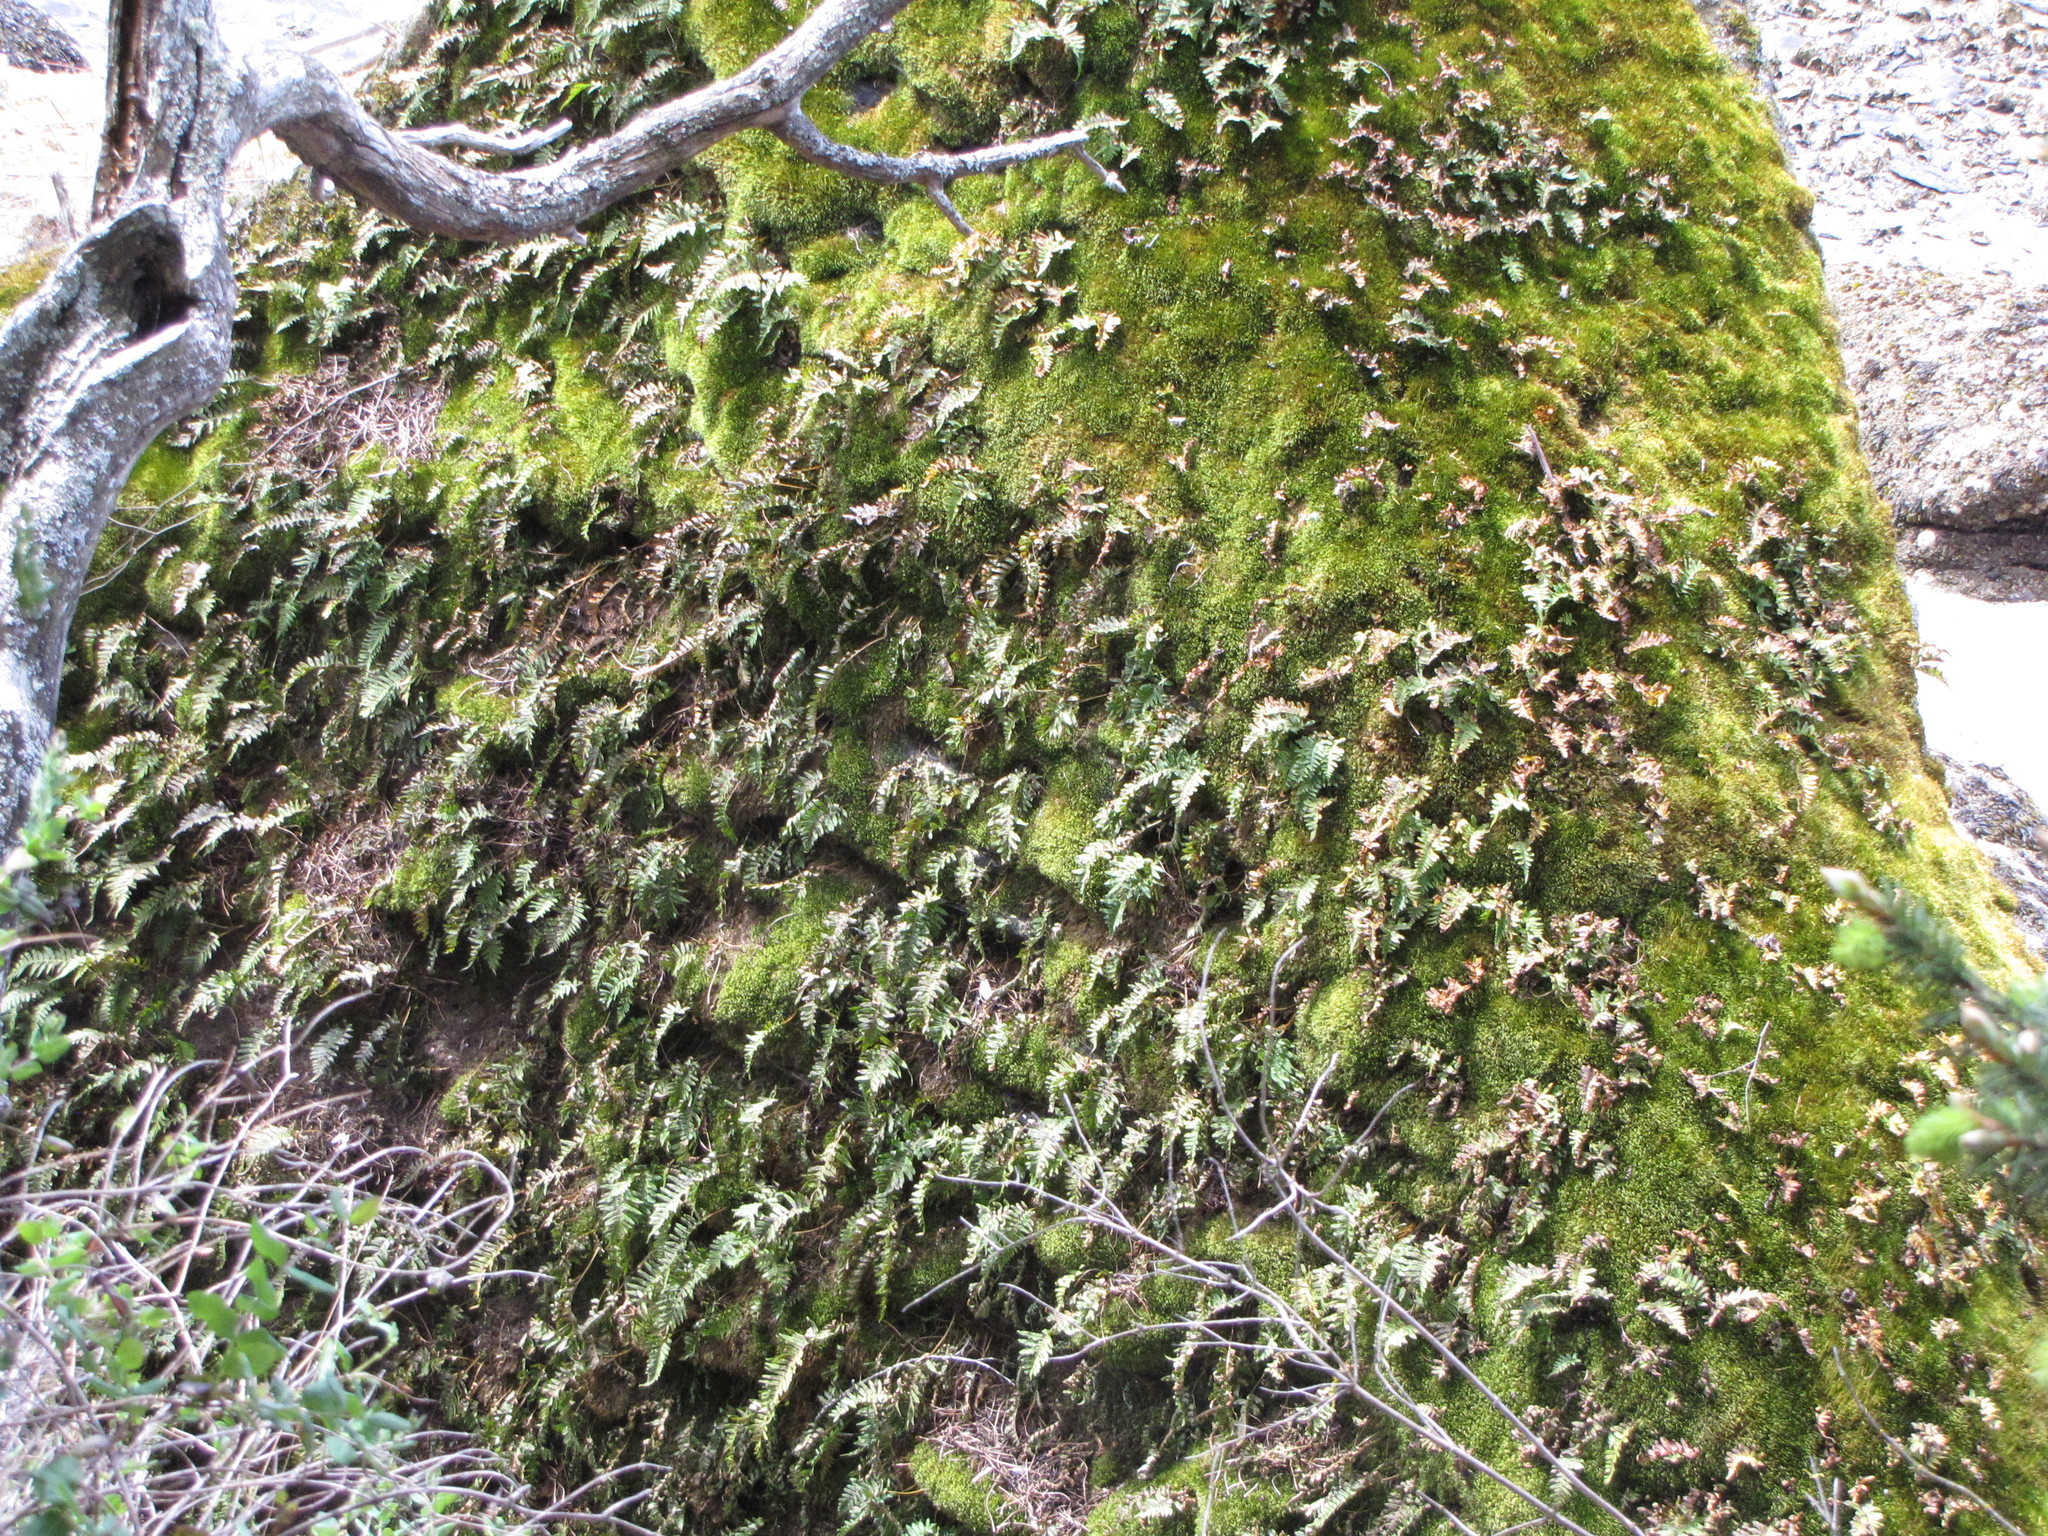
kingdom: Plantae
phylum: Tracheophyta
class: Polypodiopsida
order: Polypodiales
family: Polypodiaceae
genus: Polypodium
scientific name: Polypodium glycyrrhiza
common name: Licorice fern
